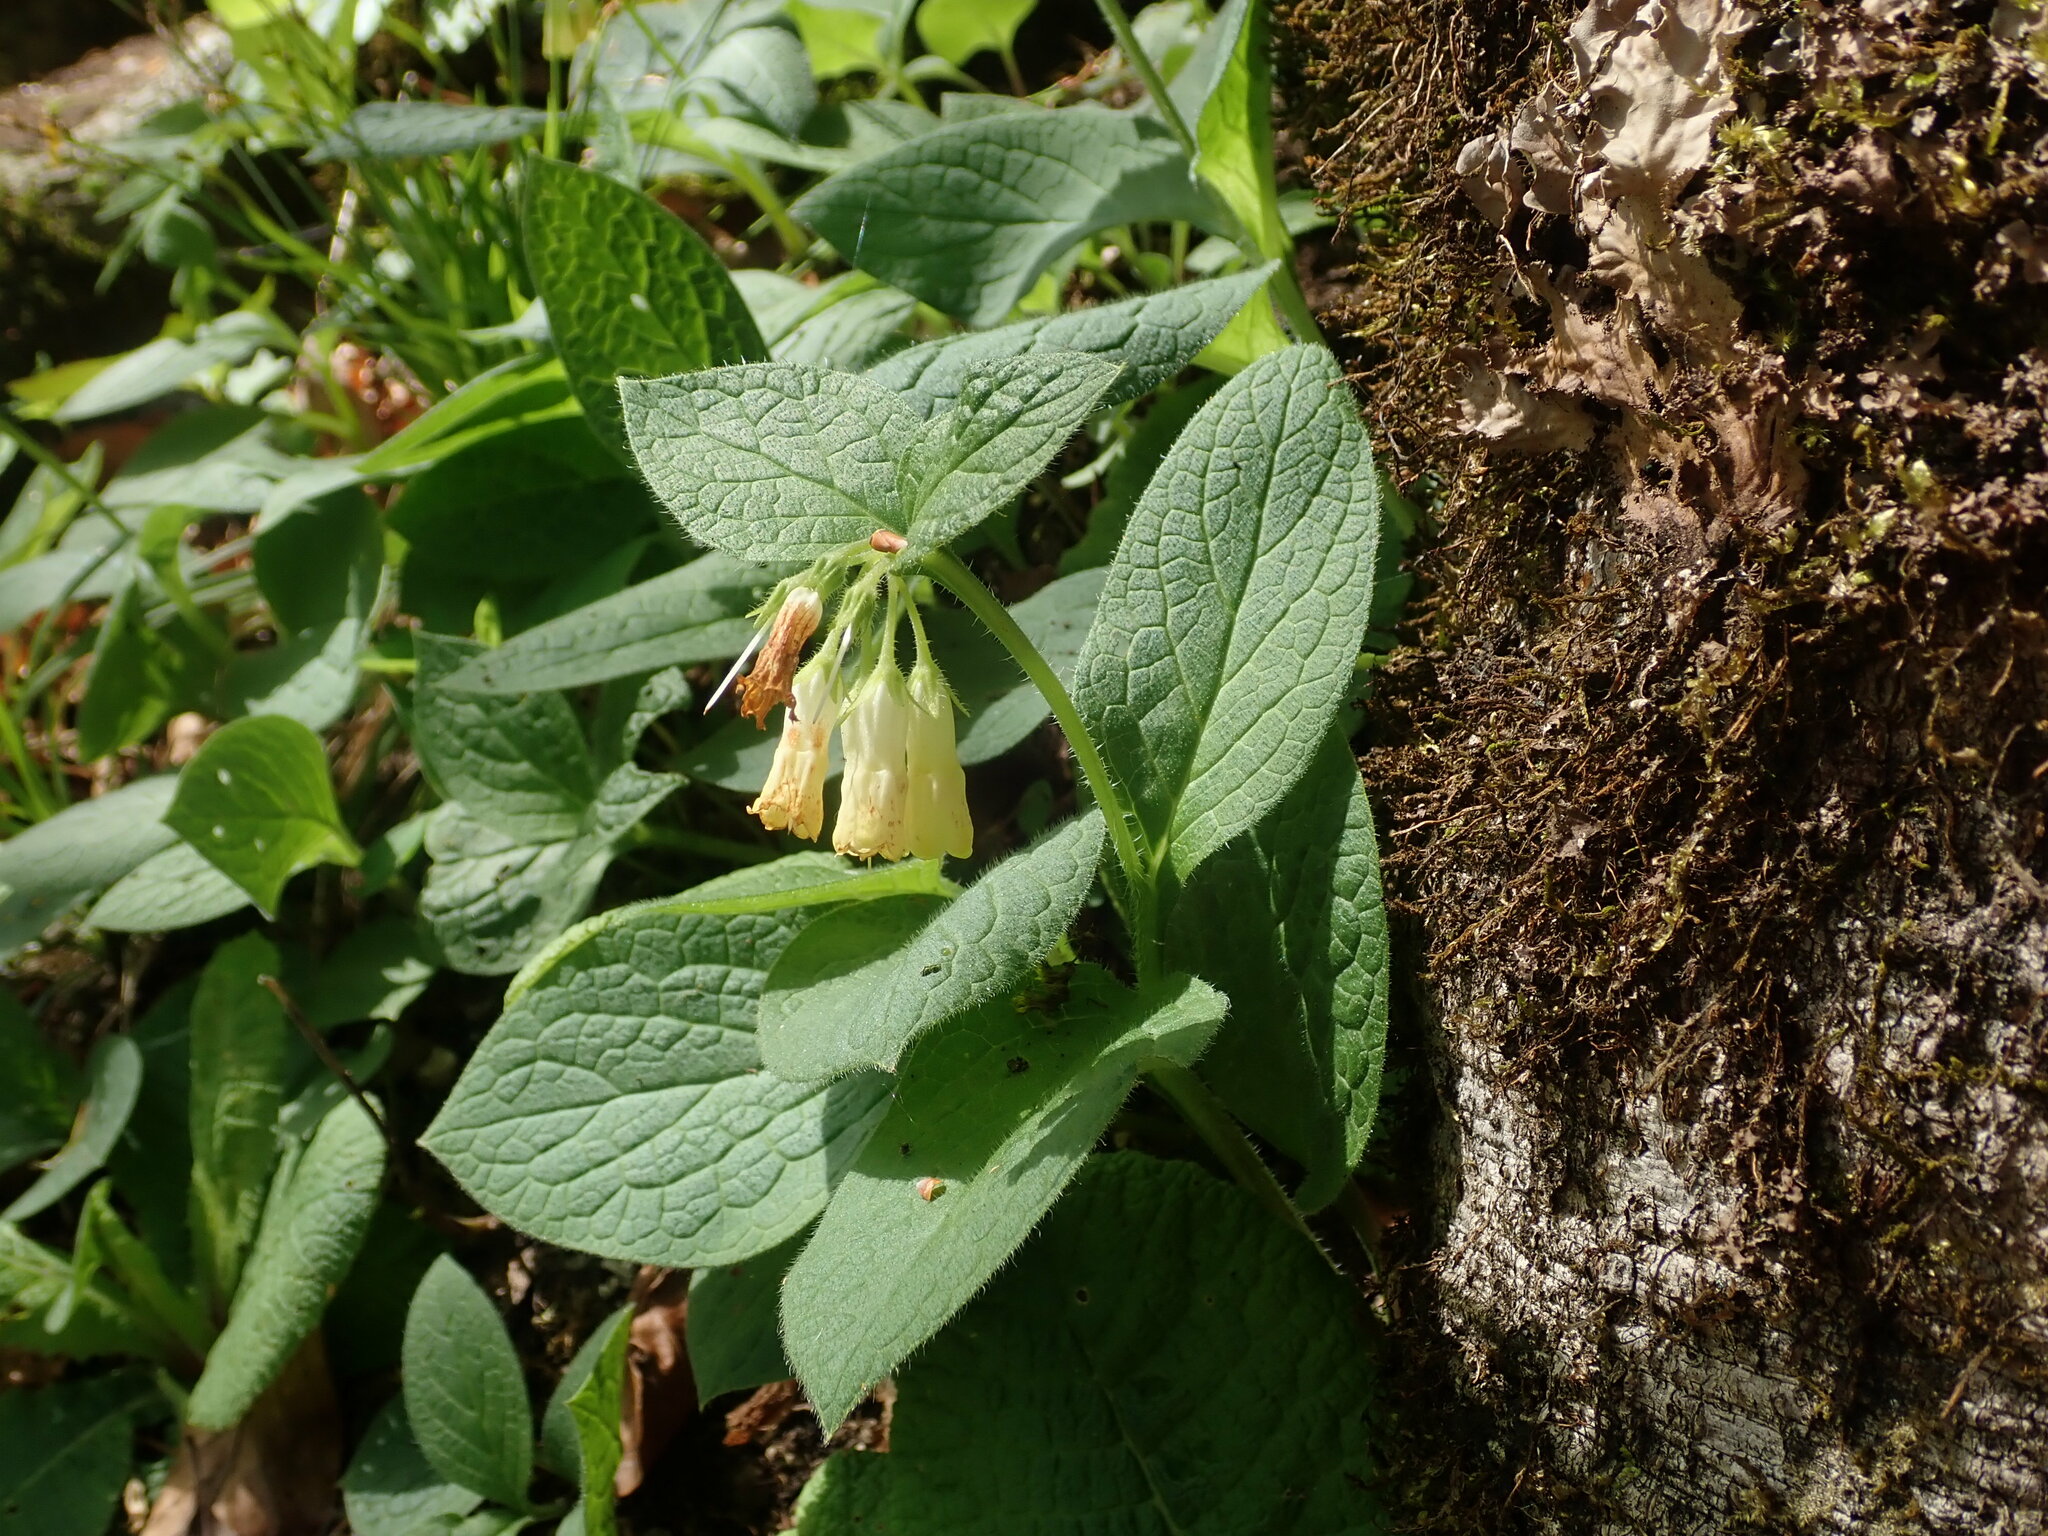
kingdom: Plantae
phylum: Tracheophyta
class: Magnoliopsida
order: Boraginales
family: Boraginaceae
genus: Symphytum
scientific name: Symphytum tuberosum
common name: Tuberous comfrey
